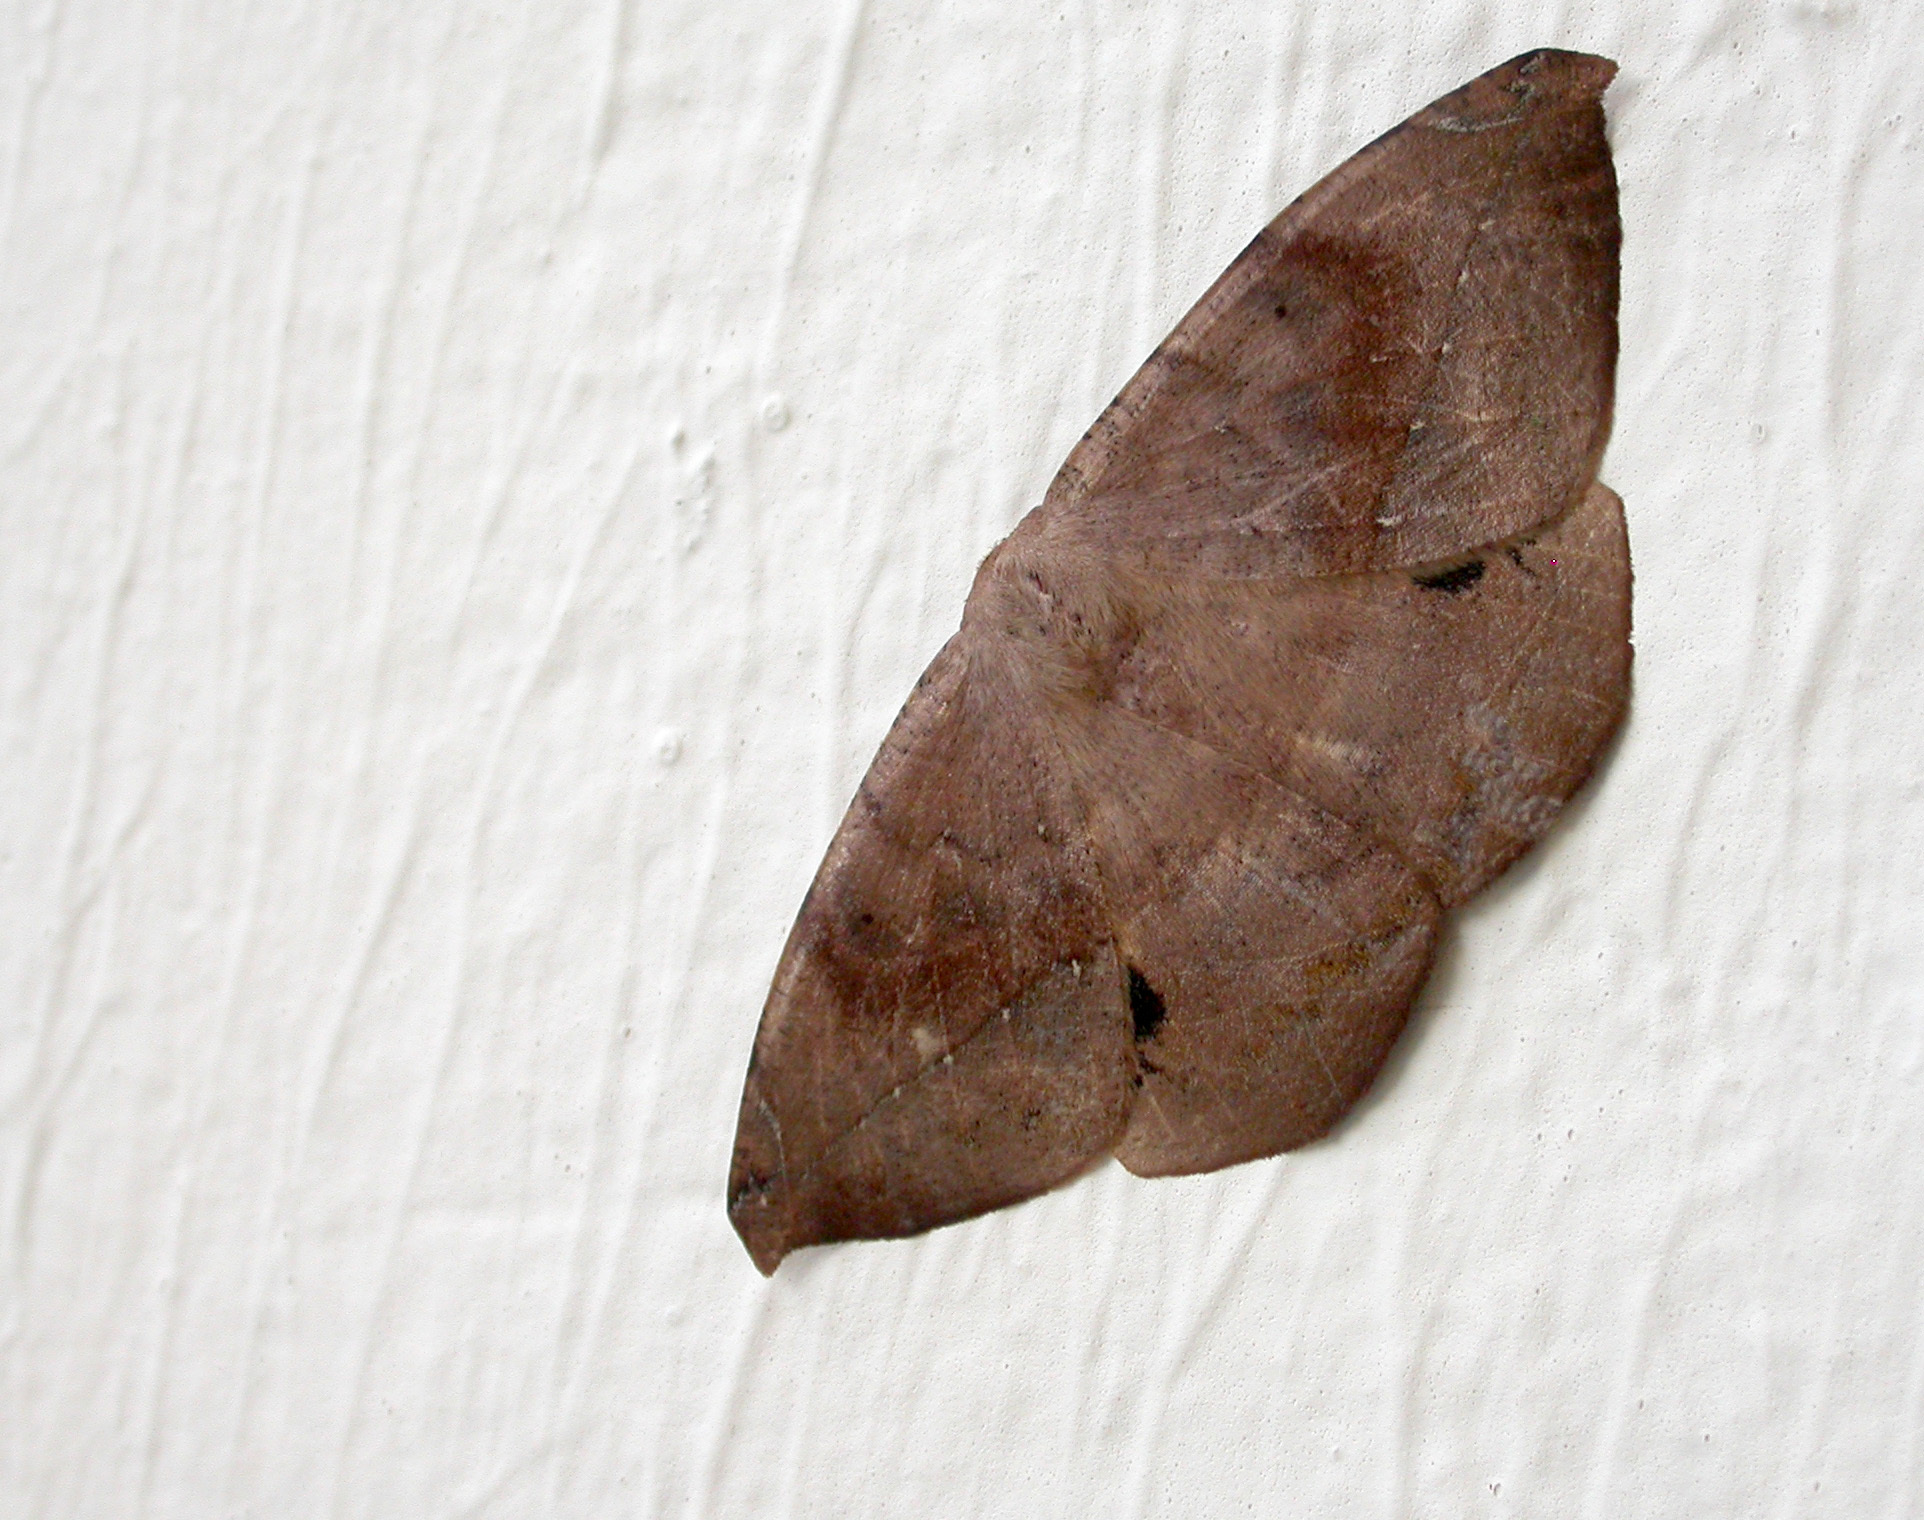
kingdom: Animalia
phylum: Arthropoda
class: Insecta
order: Lepidoptera
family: Geometridae
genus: Oxydia
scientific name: Oxydia vesulia
